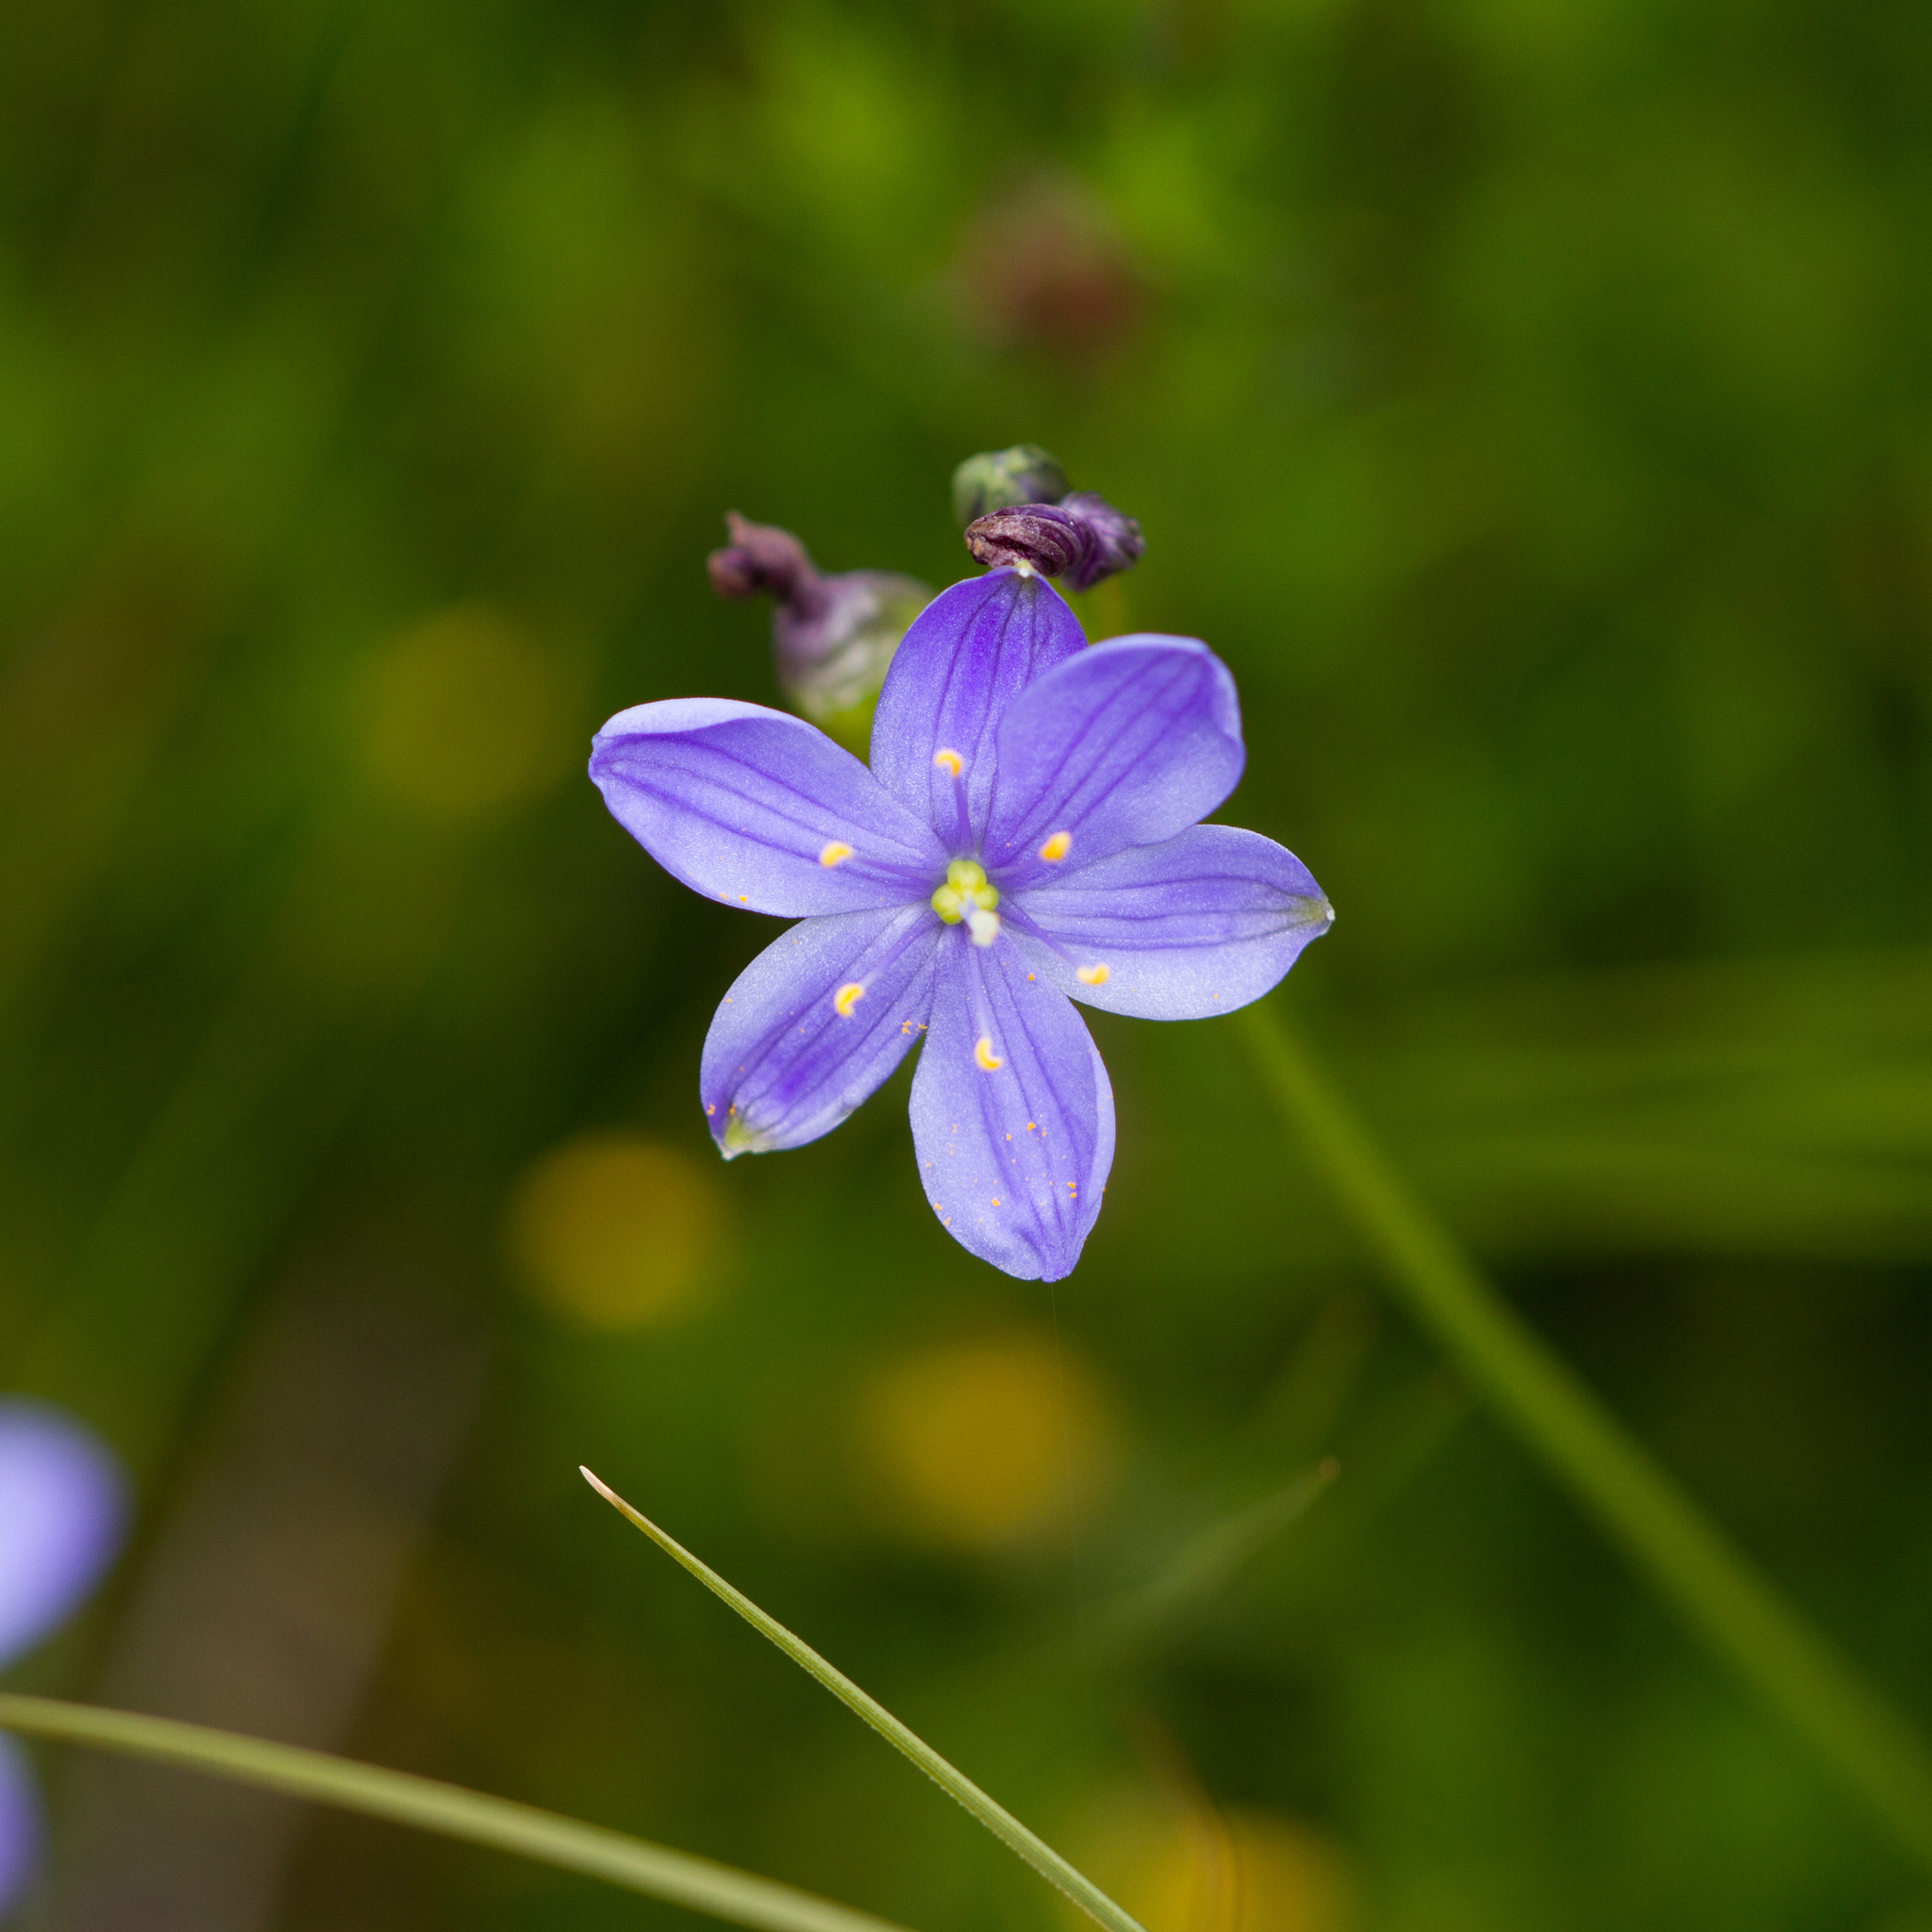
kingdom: Plantae
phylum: Tracheophyta
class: Liliopsida
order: Asparagales
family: Asphodelaceae
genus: Chamaescilla
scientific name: Chamaescilla corymbosa
